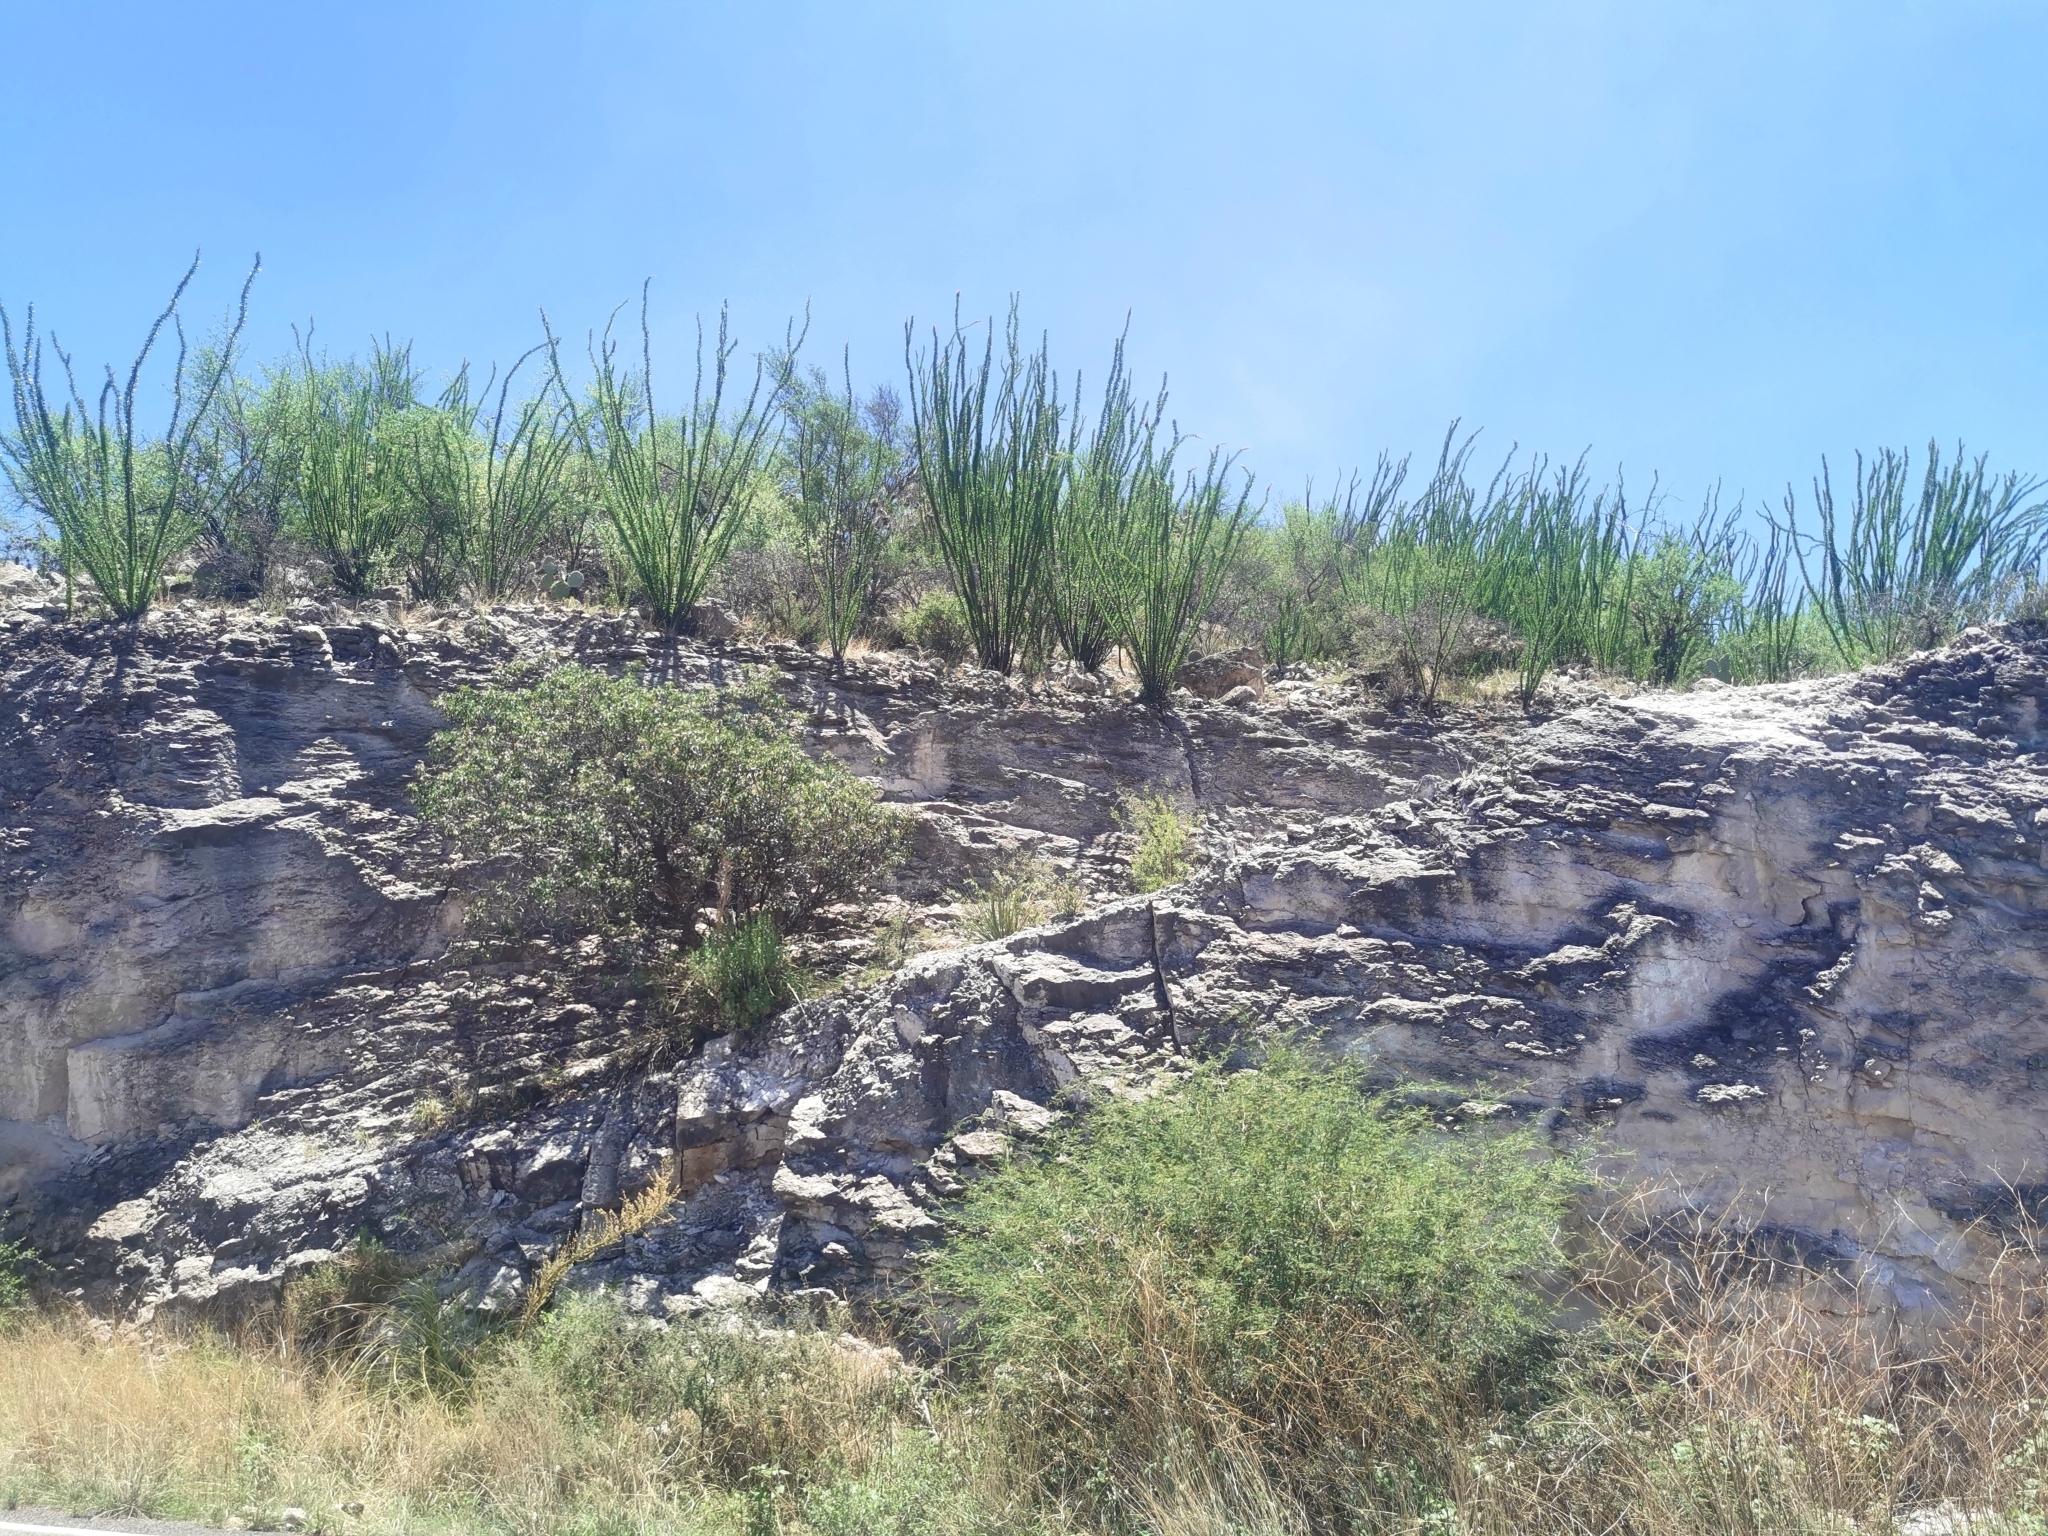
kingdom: Plantae
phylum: Tracheophyta
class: Magnoliopsida
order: Ericales
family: Fouquieriaceae
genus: Fouquieria
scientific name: Fouquieria splendens
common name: Vine-cactus
